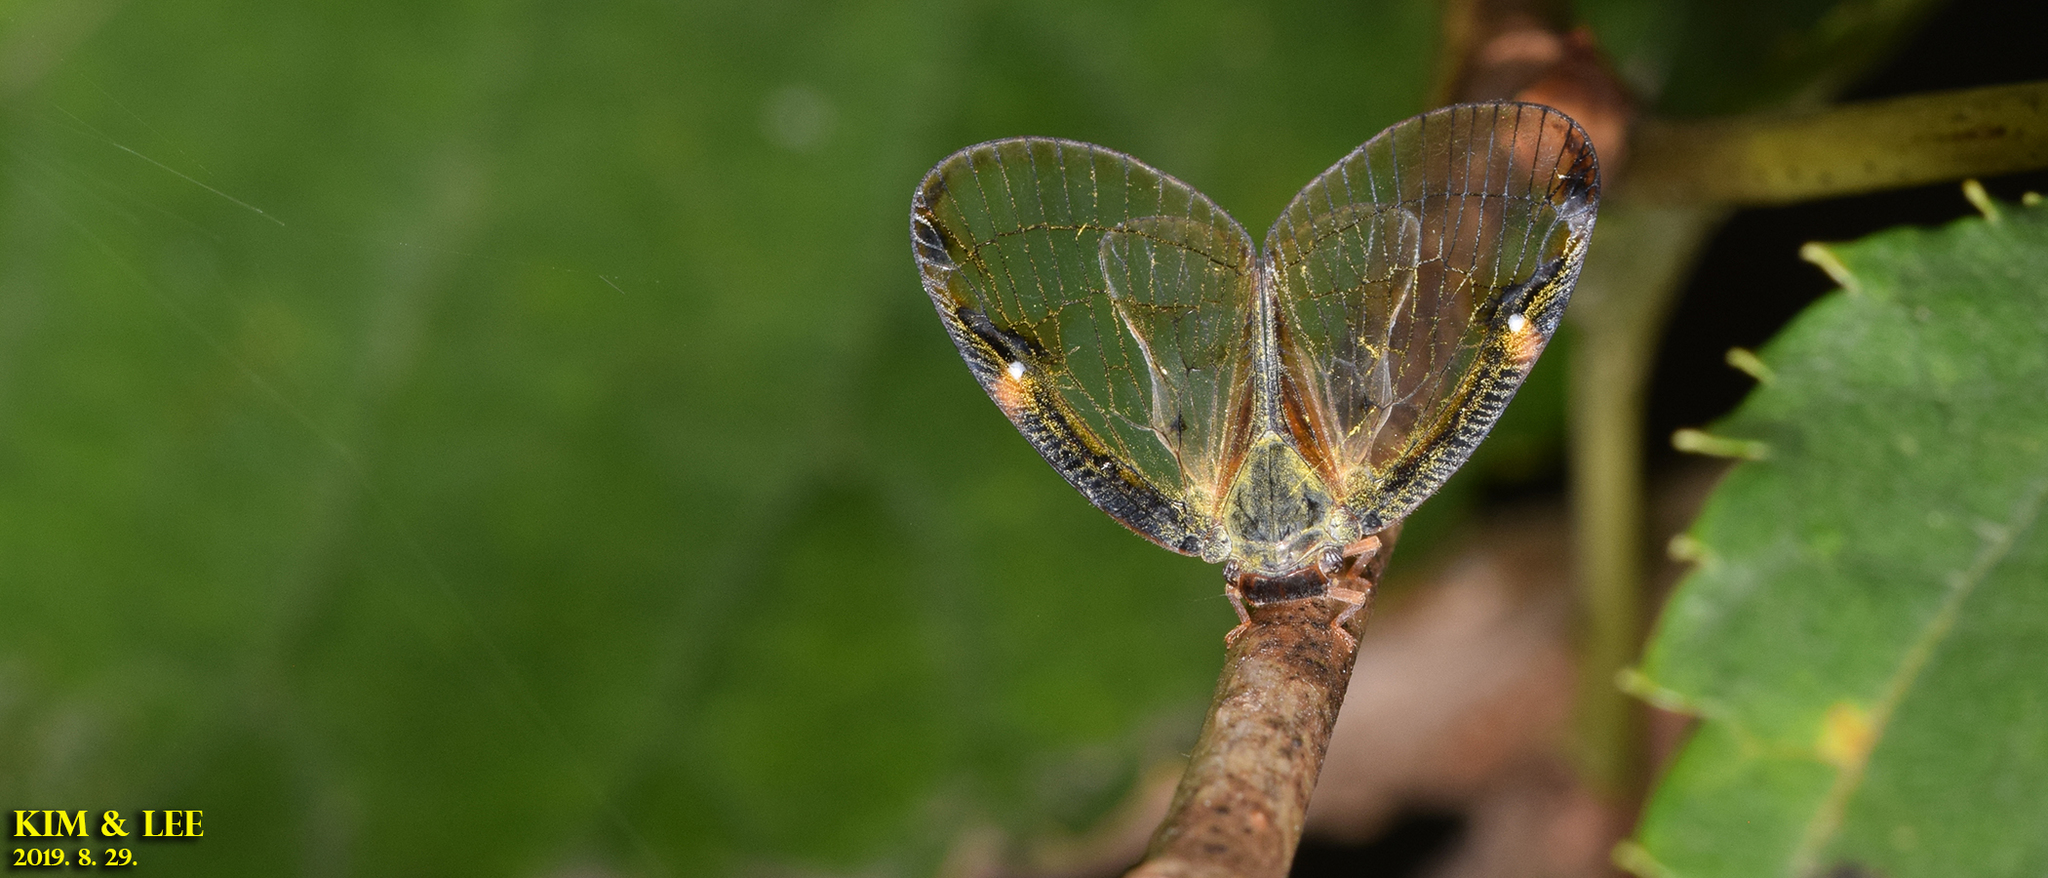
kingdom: Animalia
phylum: Arthropoda
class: Insecta
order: Hemiptera
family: Ricaniidae
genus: Euricania
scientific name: Euricania clara
